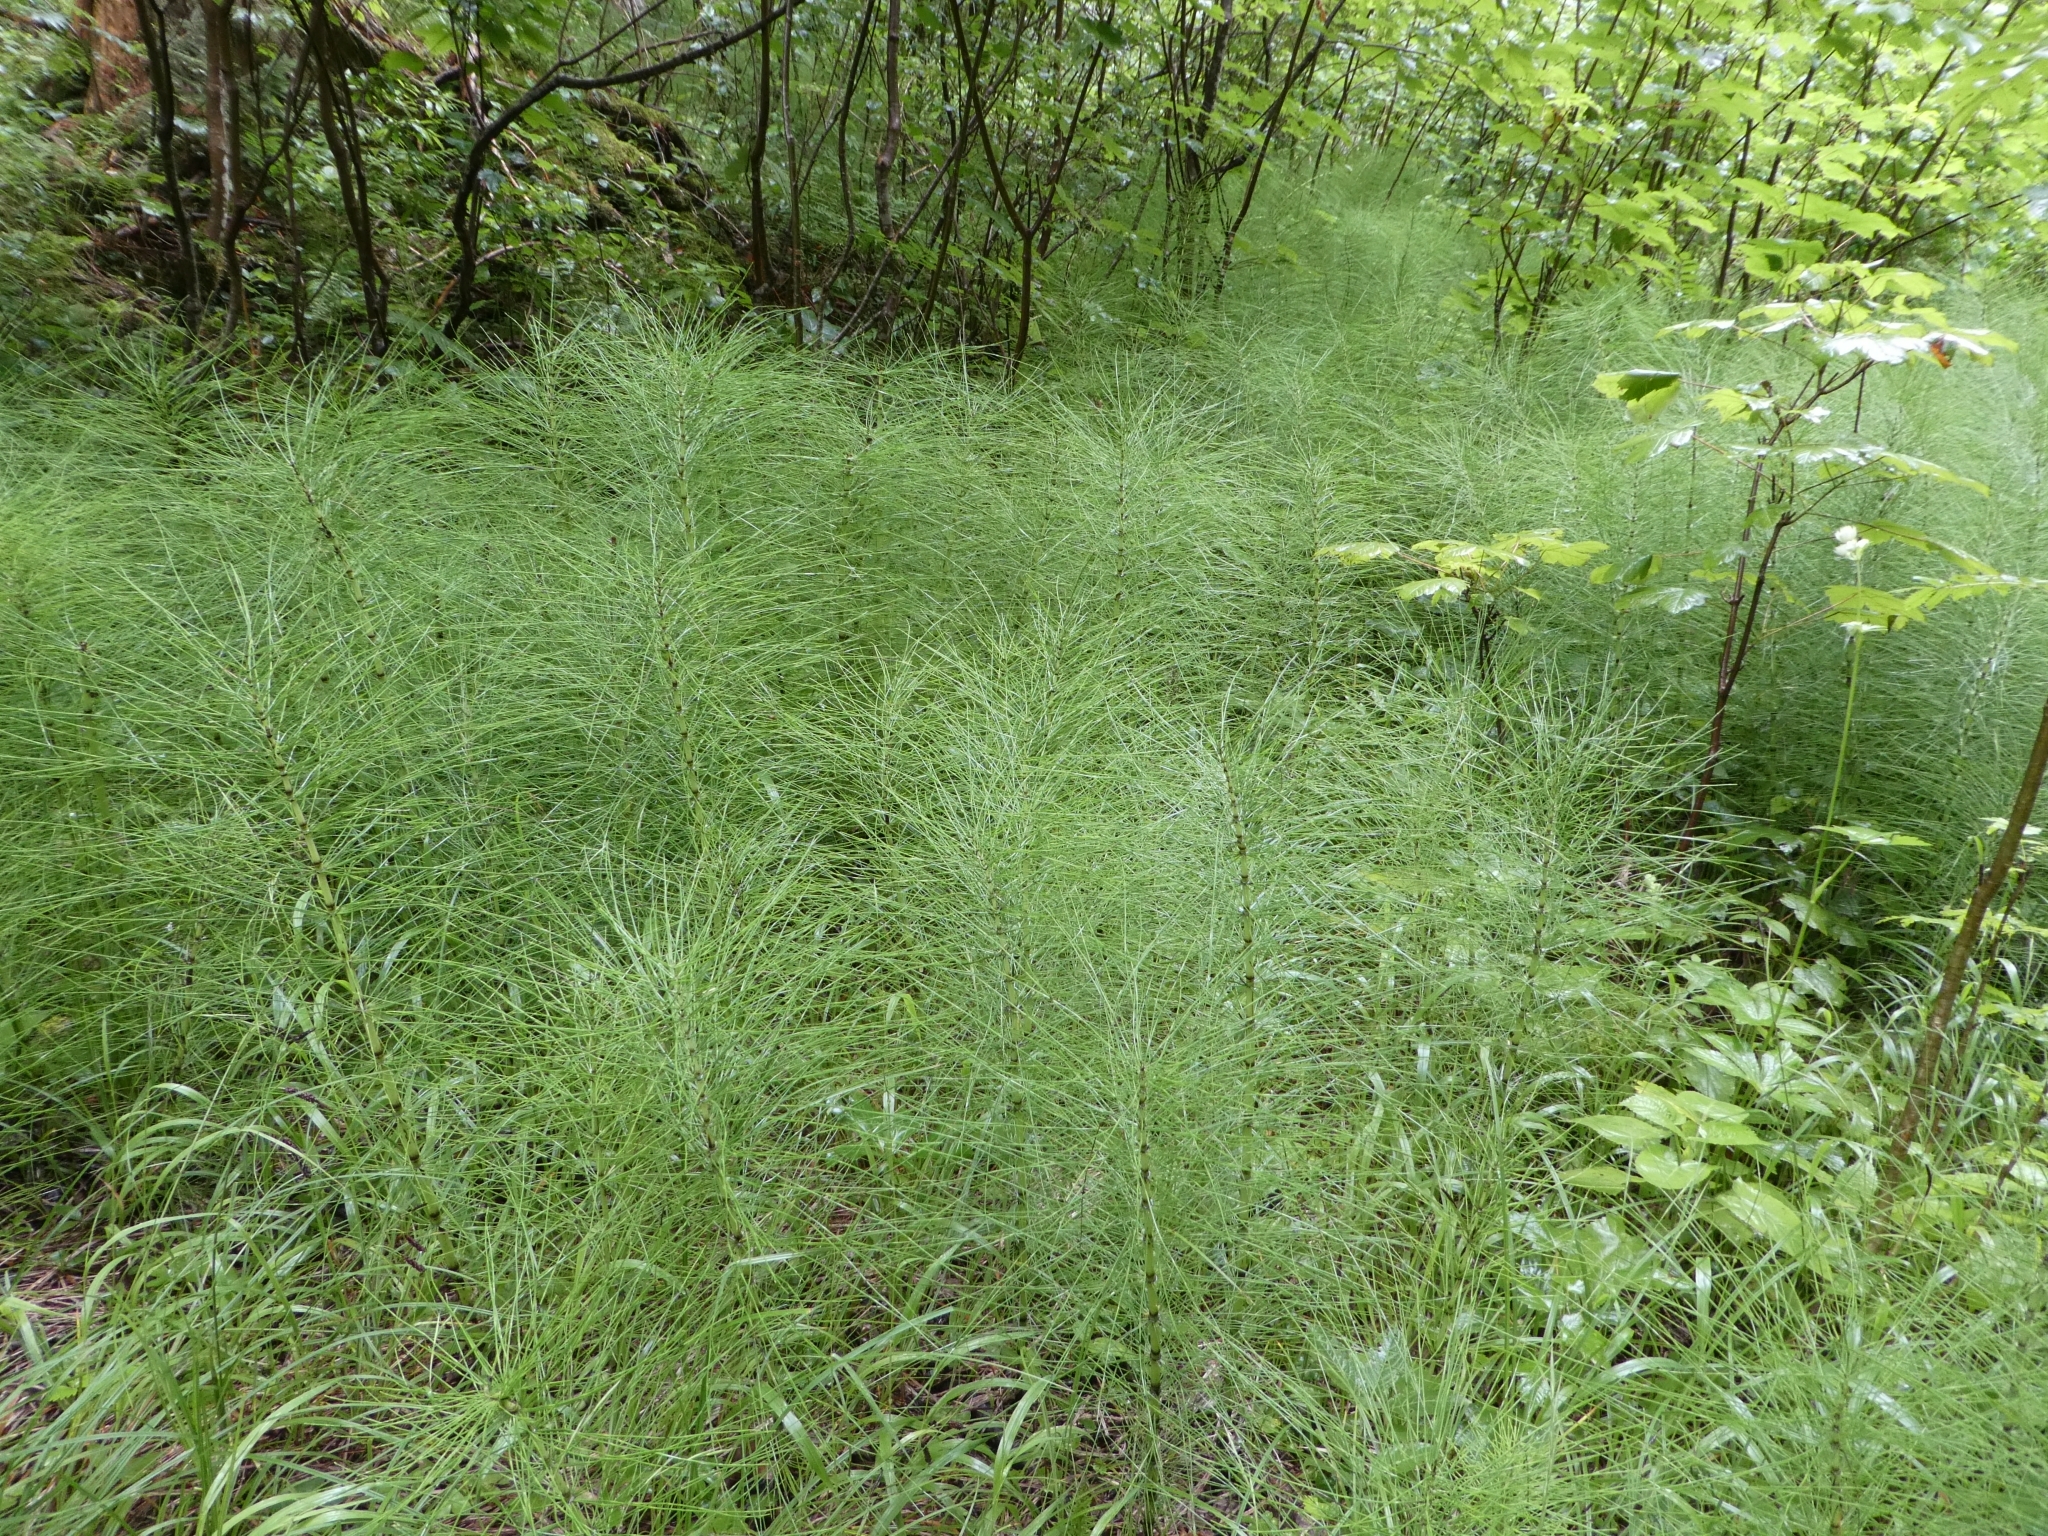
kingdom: Plantae
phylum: Tracheophyta
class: Polypodiopsida
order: Equisetales
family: Equisetaceae
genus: Equisetum
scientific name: Equisetum telmateia
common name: Great horsetail
